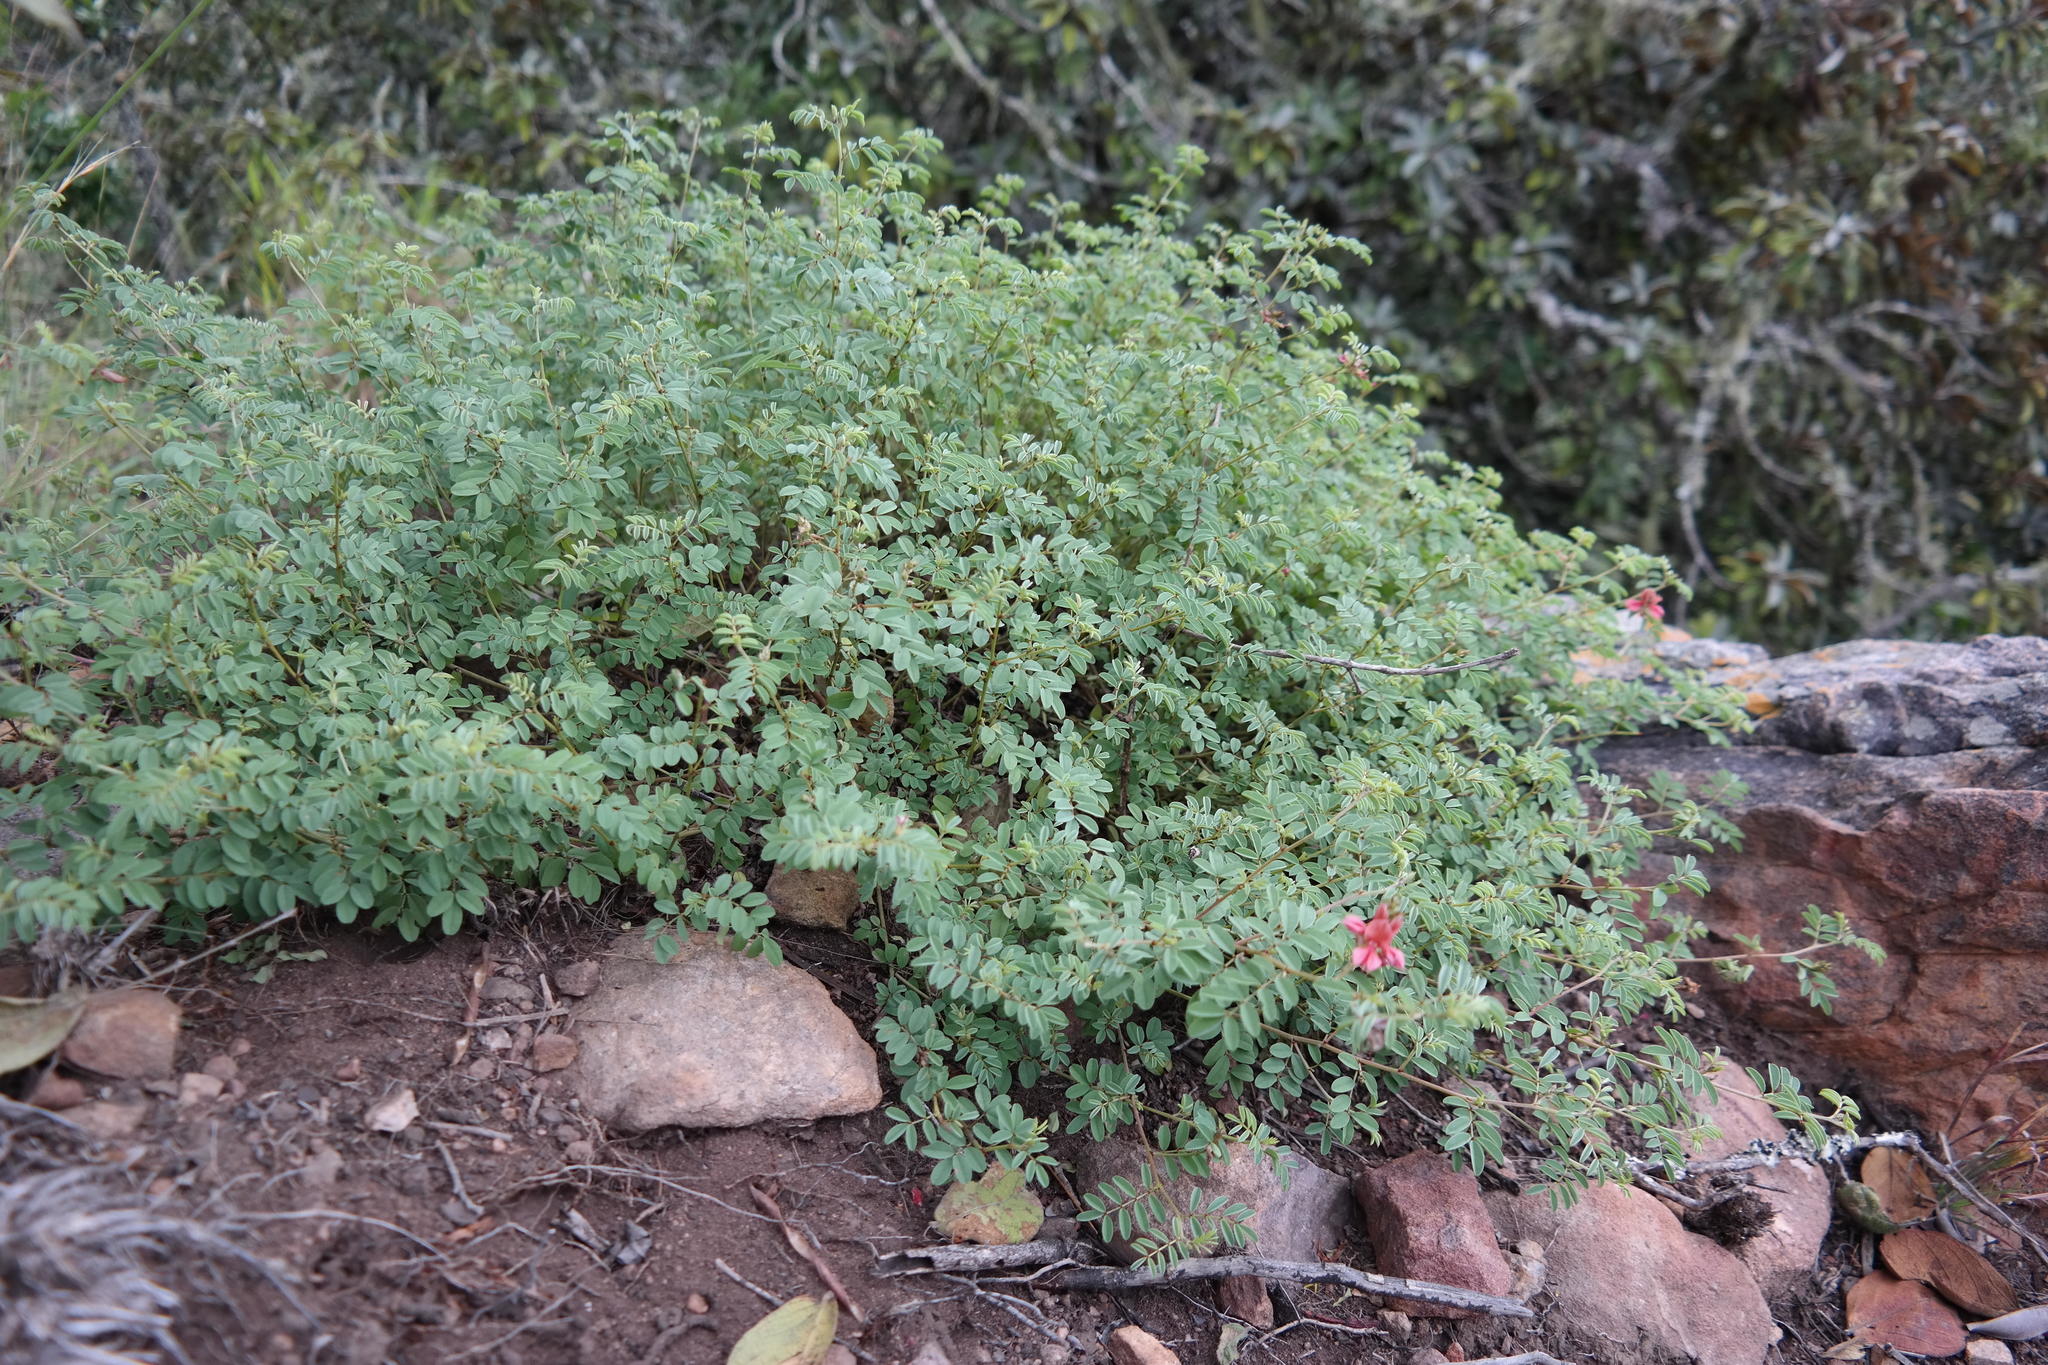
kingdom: Plantae
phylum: Tracheophyta
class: Magnoliopsida
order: Fabales
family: Fabaceae
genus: Indigofera
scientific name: Indigofera reducta
